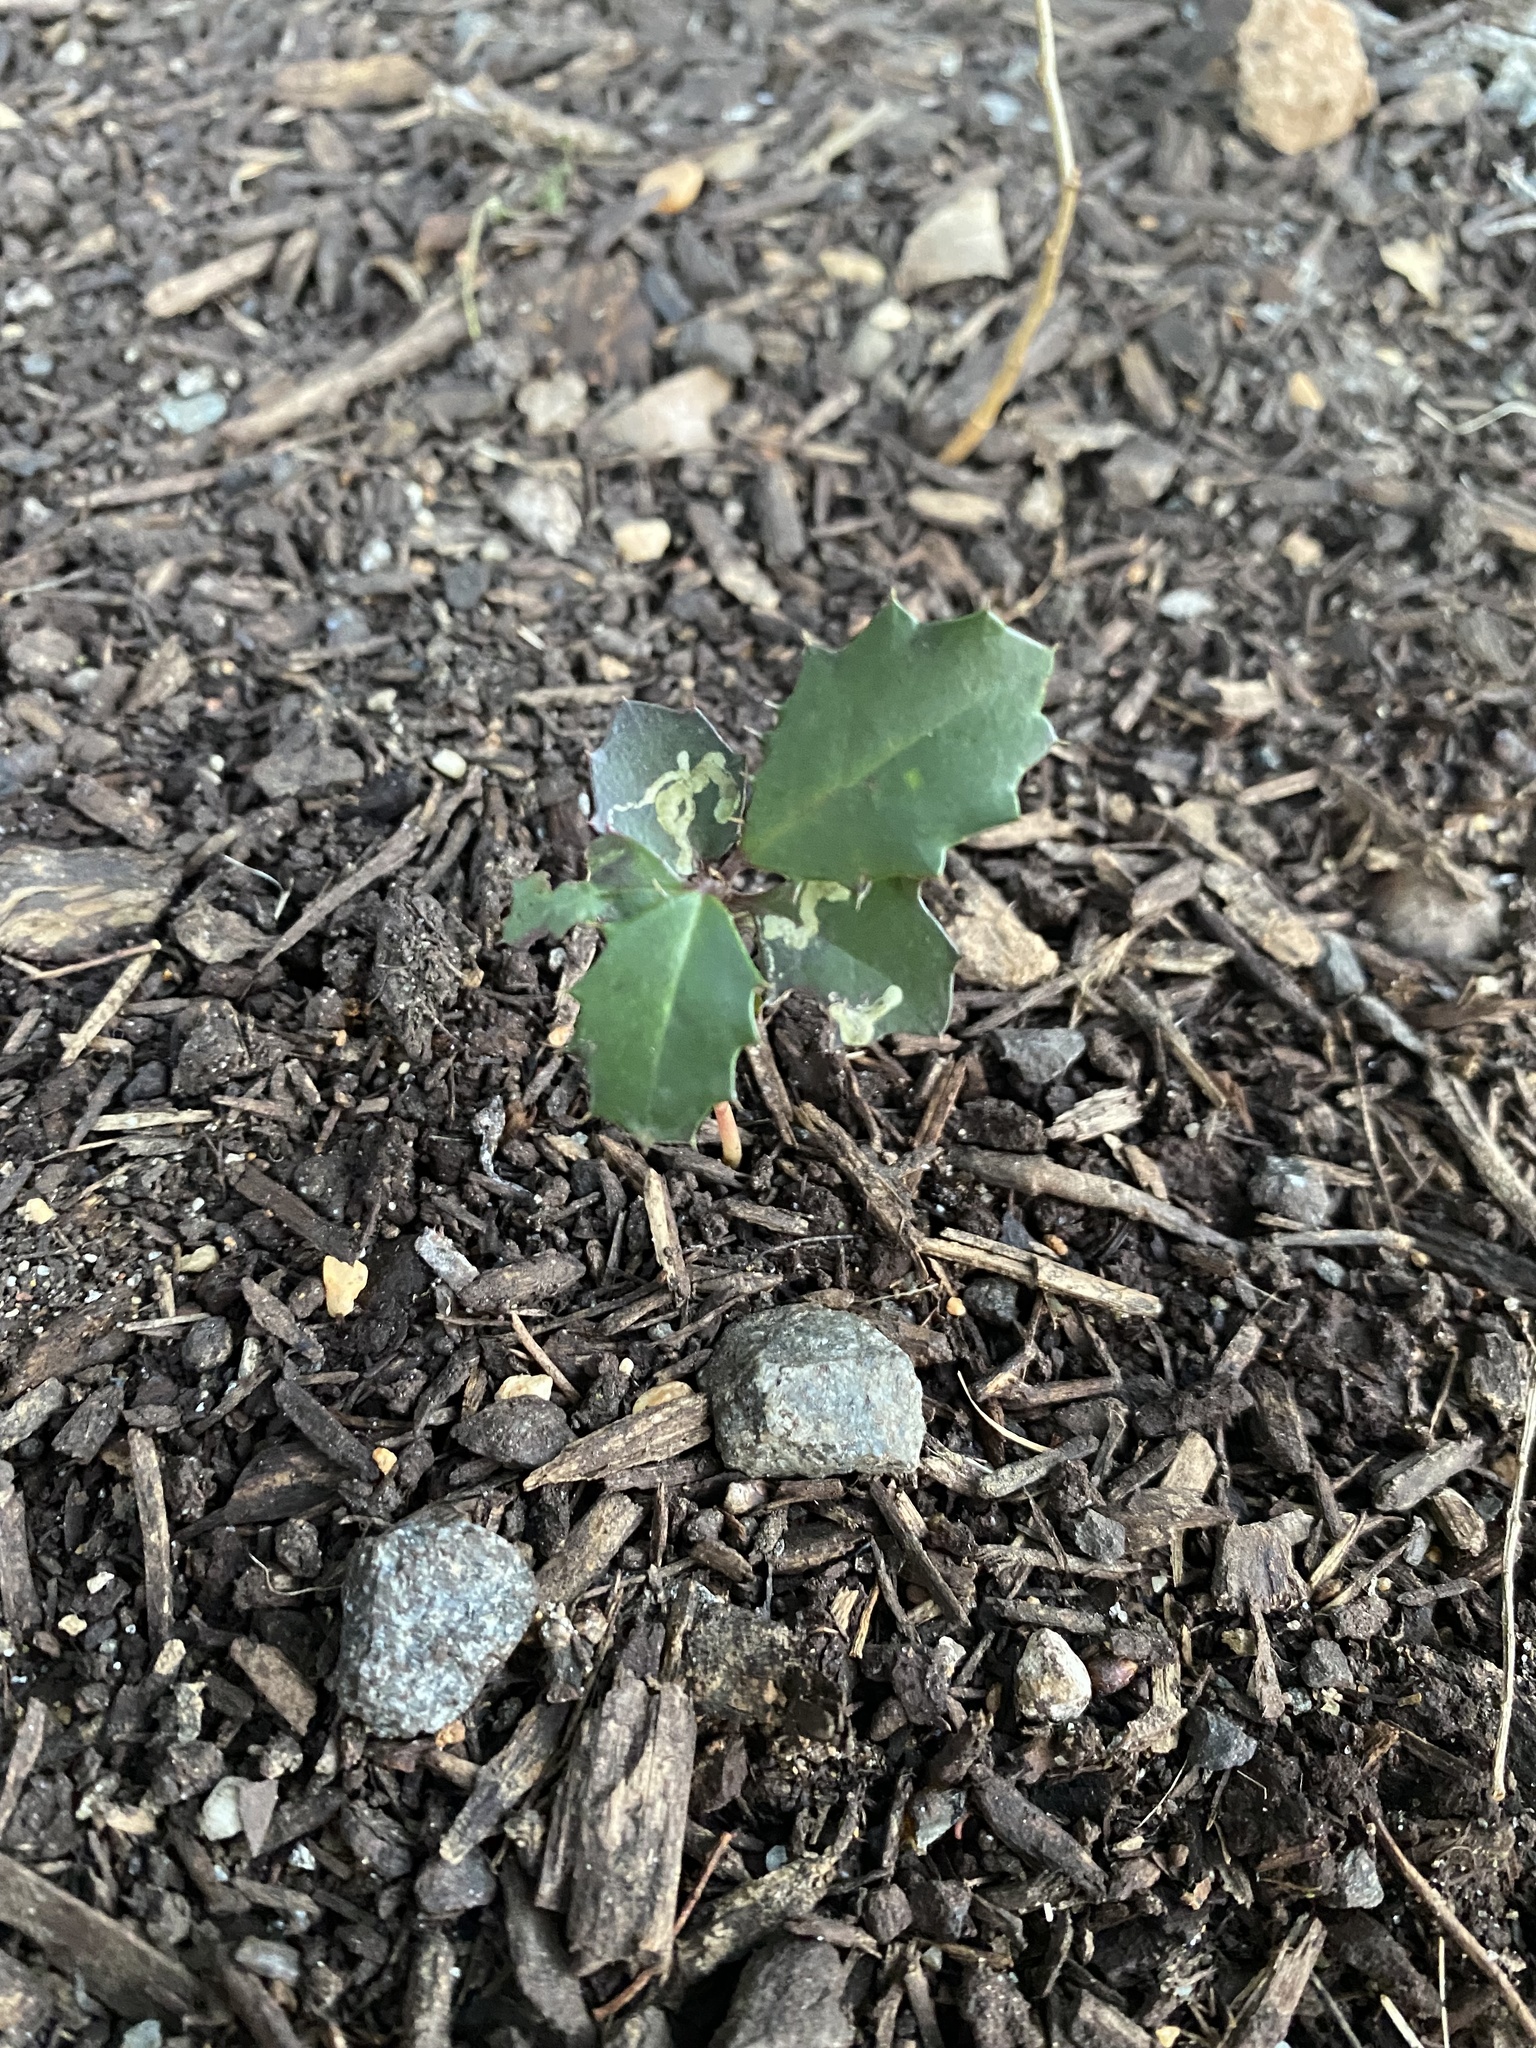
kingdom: Plantae
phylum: Tracheophyta
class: Magnoliopsida
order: Aquifoliales
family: Aquifoliaceae
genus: Ilex
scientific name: Ilex opaca
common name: American holly
